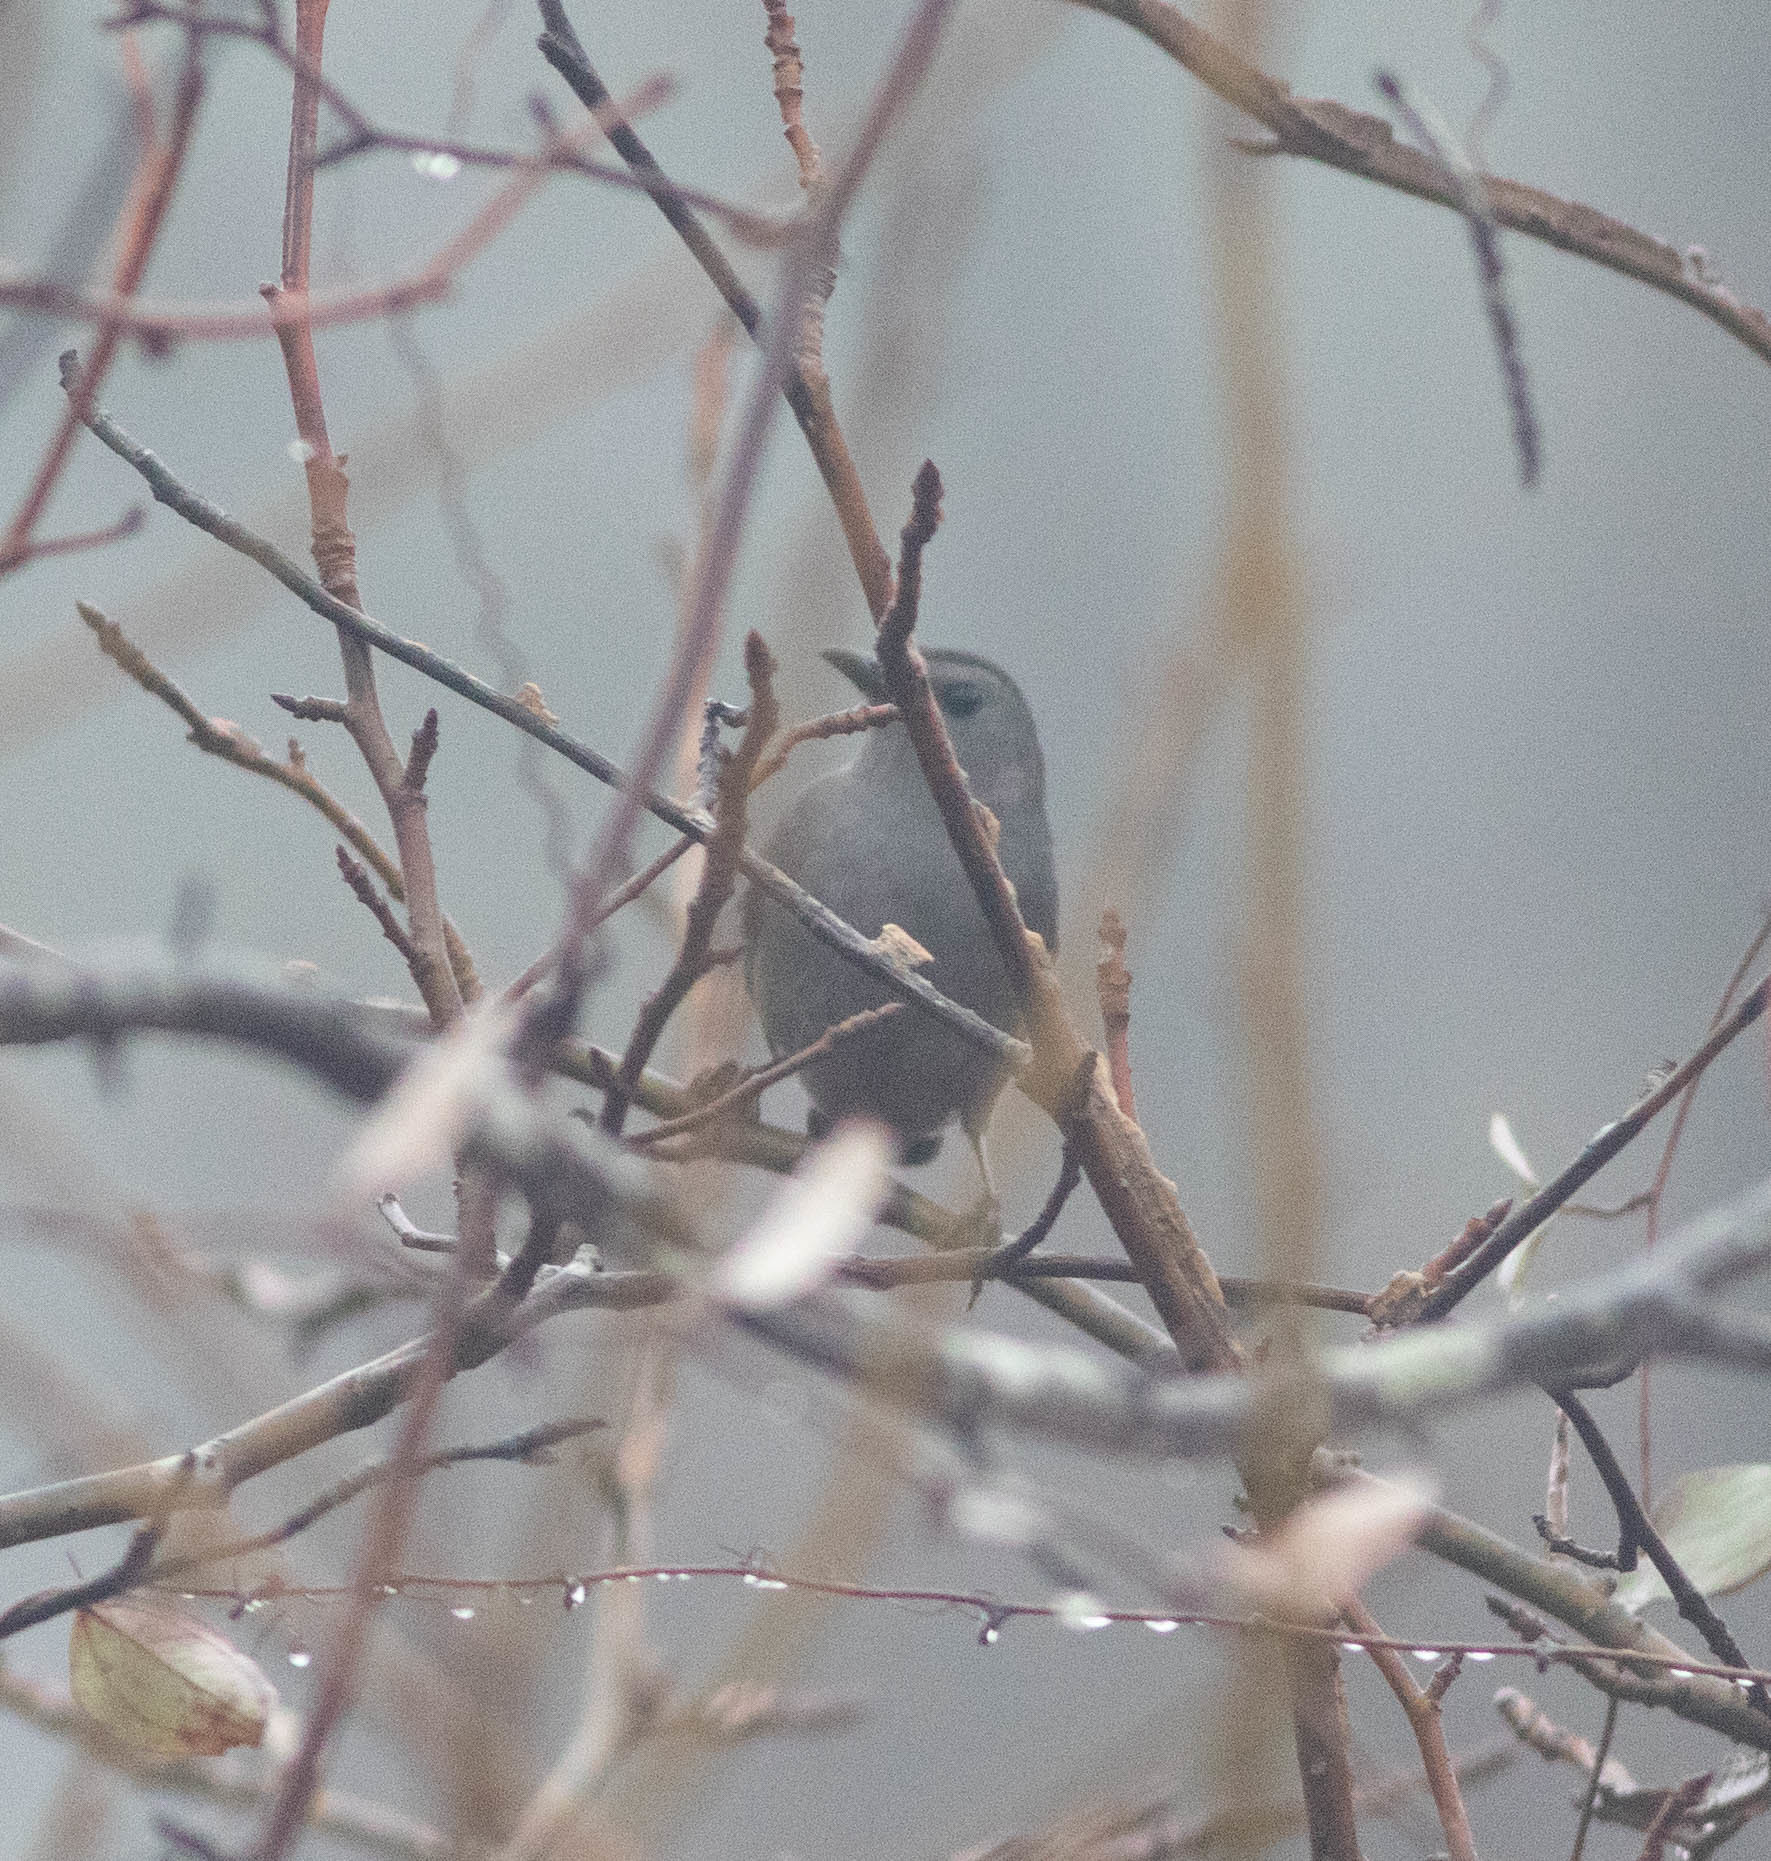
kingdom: Animalia
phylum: Chordata
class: Aves
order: Passeriformes
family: Mimidae
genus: Dumetella
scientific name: Dumetella carolinensis
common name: Gray catbird
